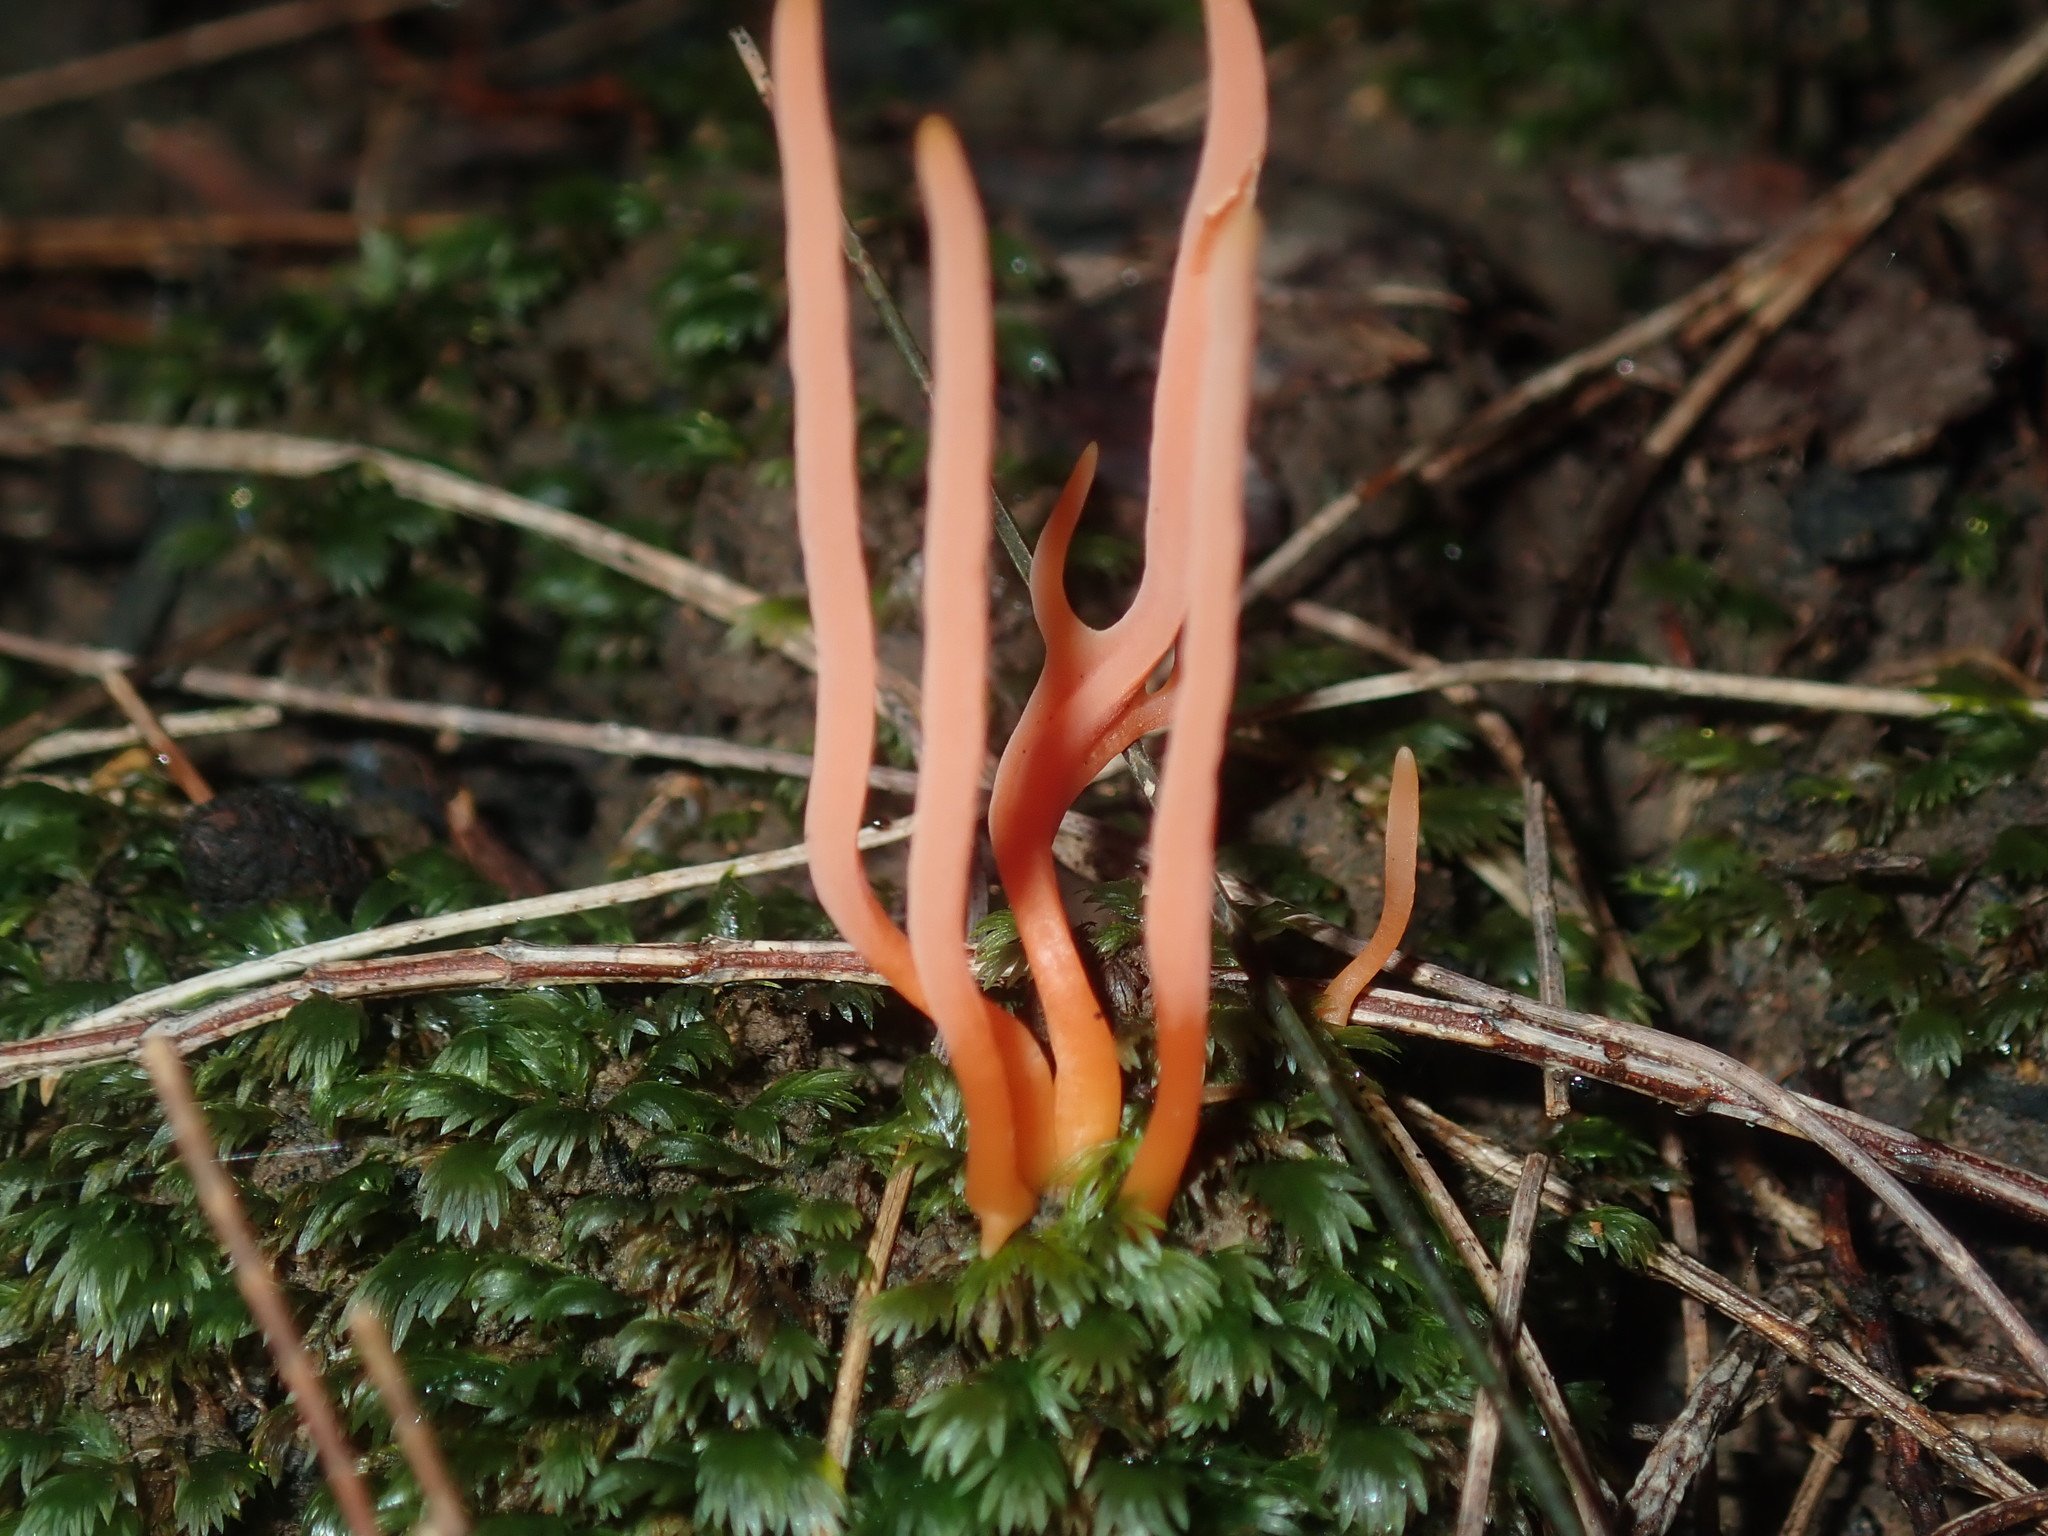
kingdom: Fungi
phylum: Basidiomycota
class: Agaricomycetes
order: Agaricales
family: Clavariaceae
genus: Clavulinopsis
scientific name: Clavulinopsis corallinorosacea
